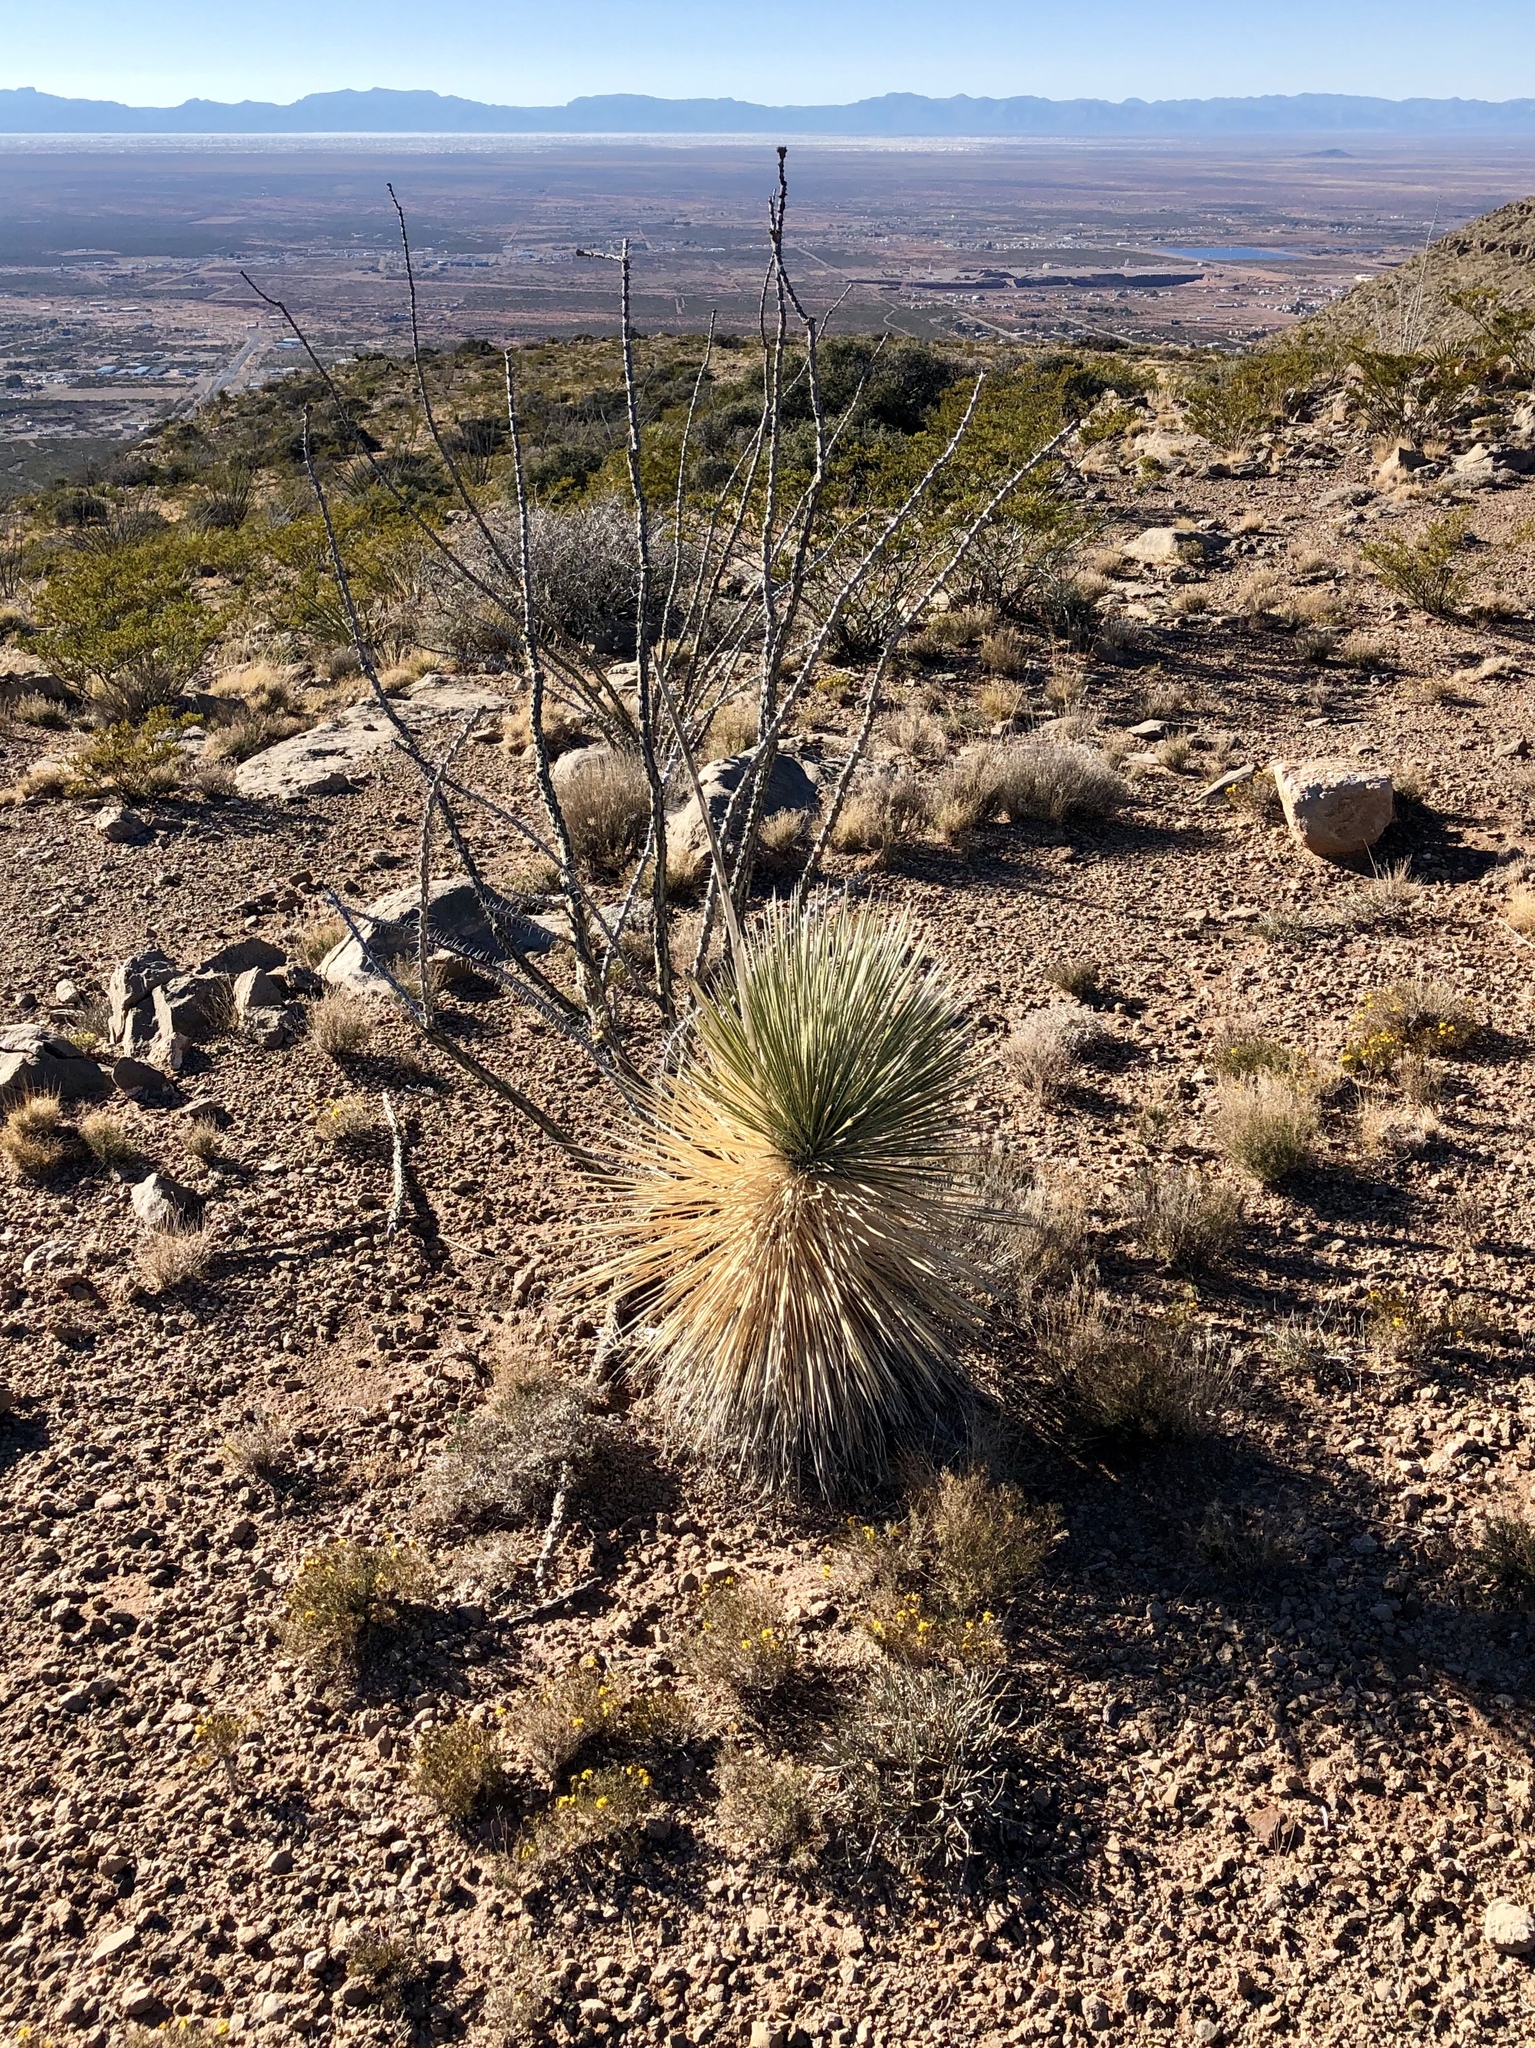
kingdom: Plantae
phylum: Tracheophyta
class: Liliopsida
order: Asparagales
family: Asparagaceae
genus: Yucca
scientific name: Yucca elata
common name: Palmella
